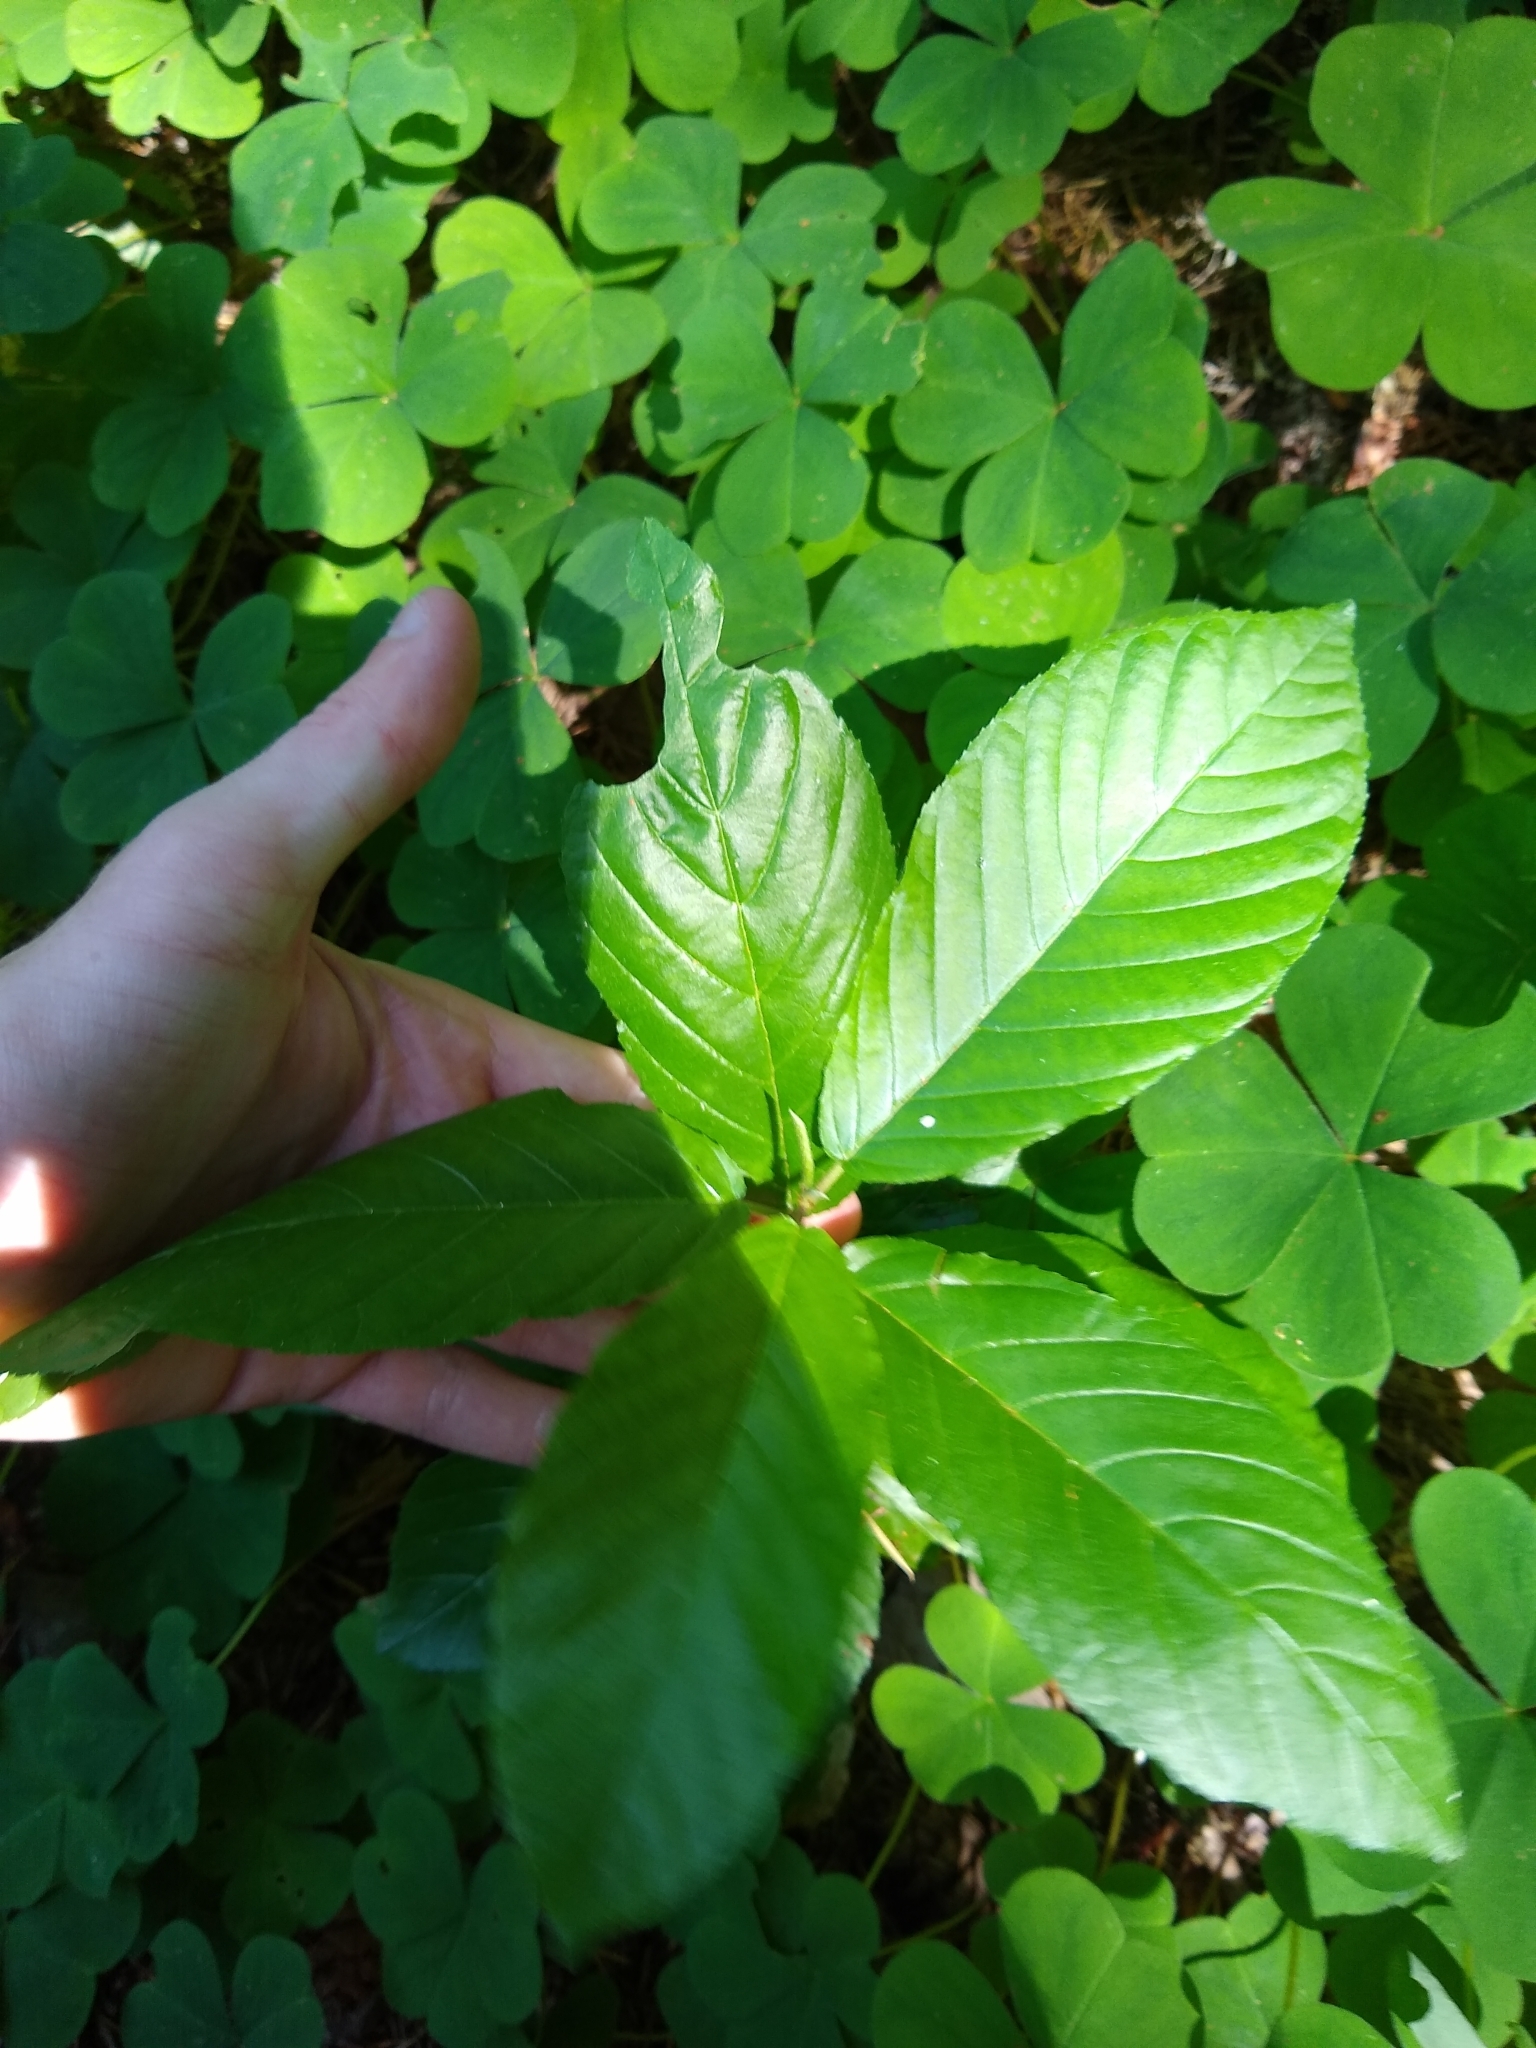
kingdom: Plantae
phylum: Tracheophyta
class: Magnoliopsida
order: Rosales
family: Rhamnaceae
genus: Frangula
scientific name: Frangula purshiana
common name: Cascara buckthorn
